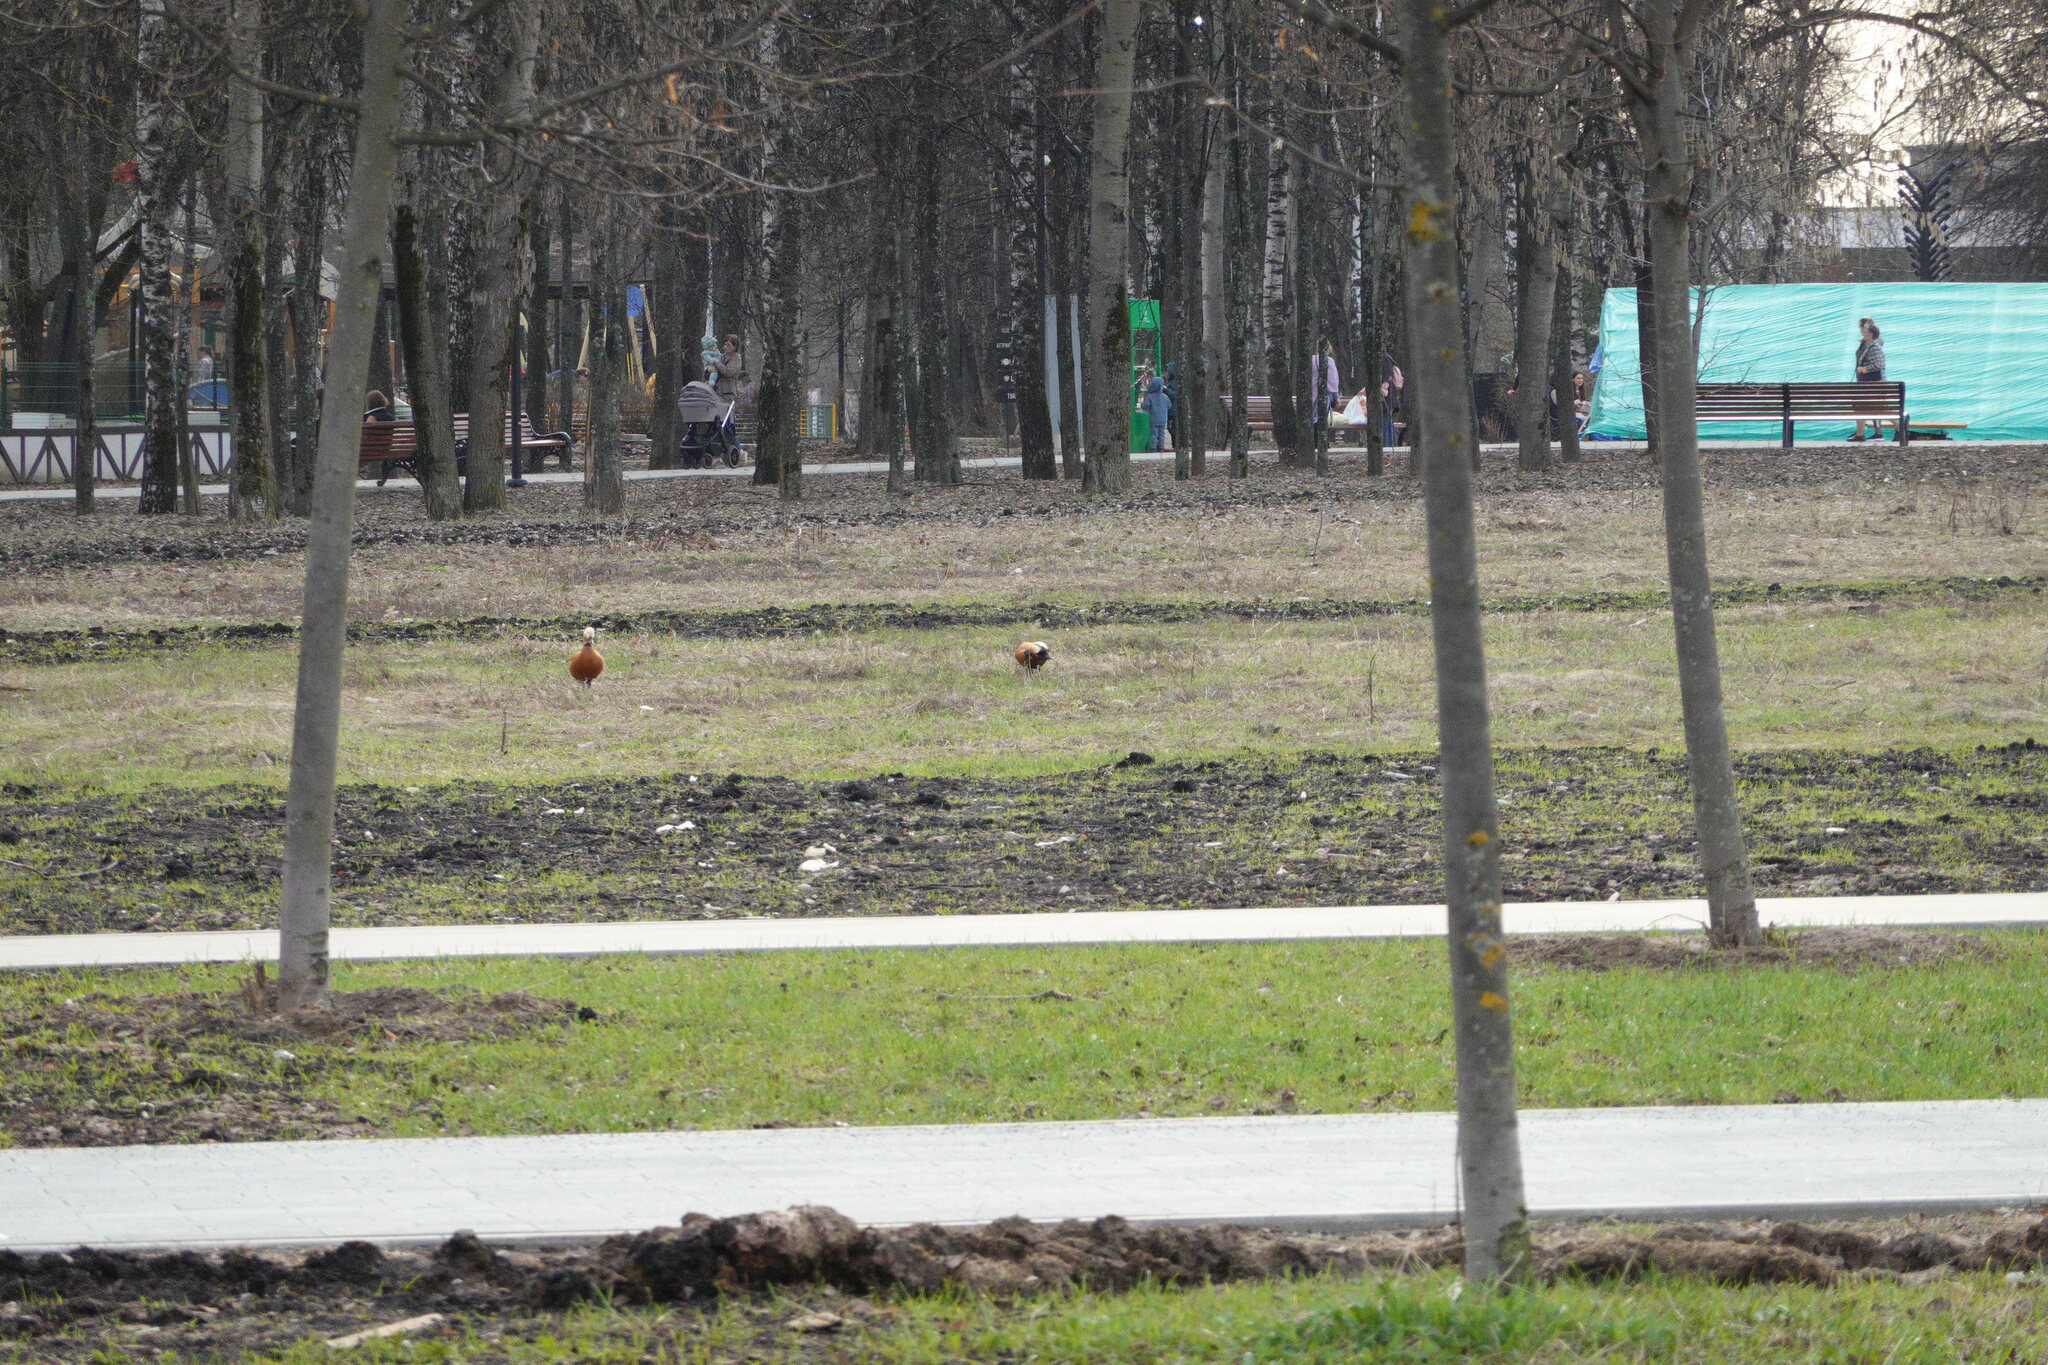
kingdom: Animalia
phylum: Chordata
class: Aves
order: Anseriformes
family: Anatidae
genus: Tadorna
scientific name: Tadorna ferruginea
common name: Ruddy shelduck
